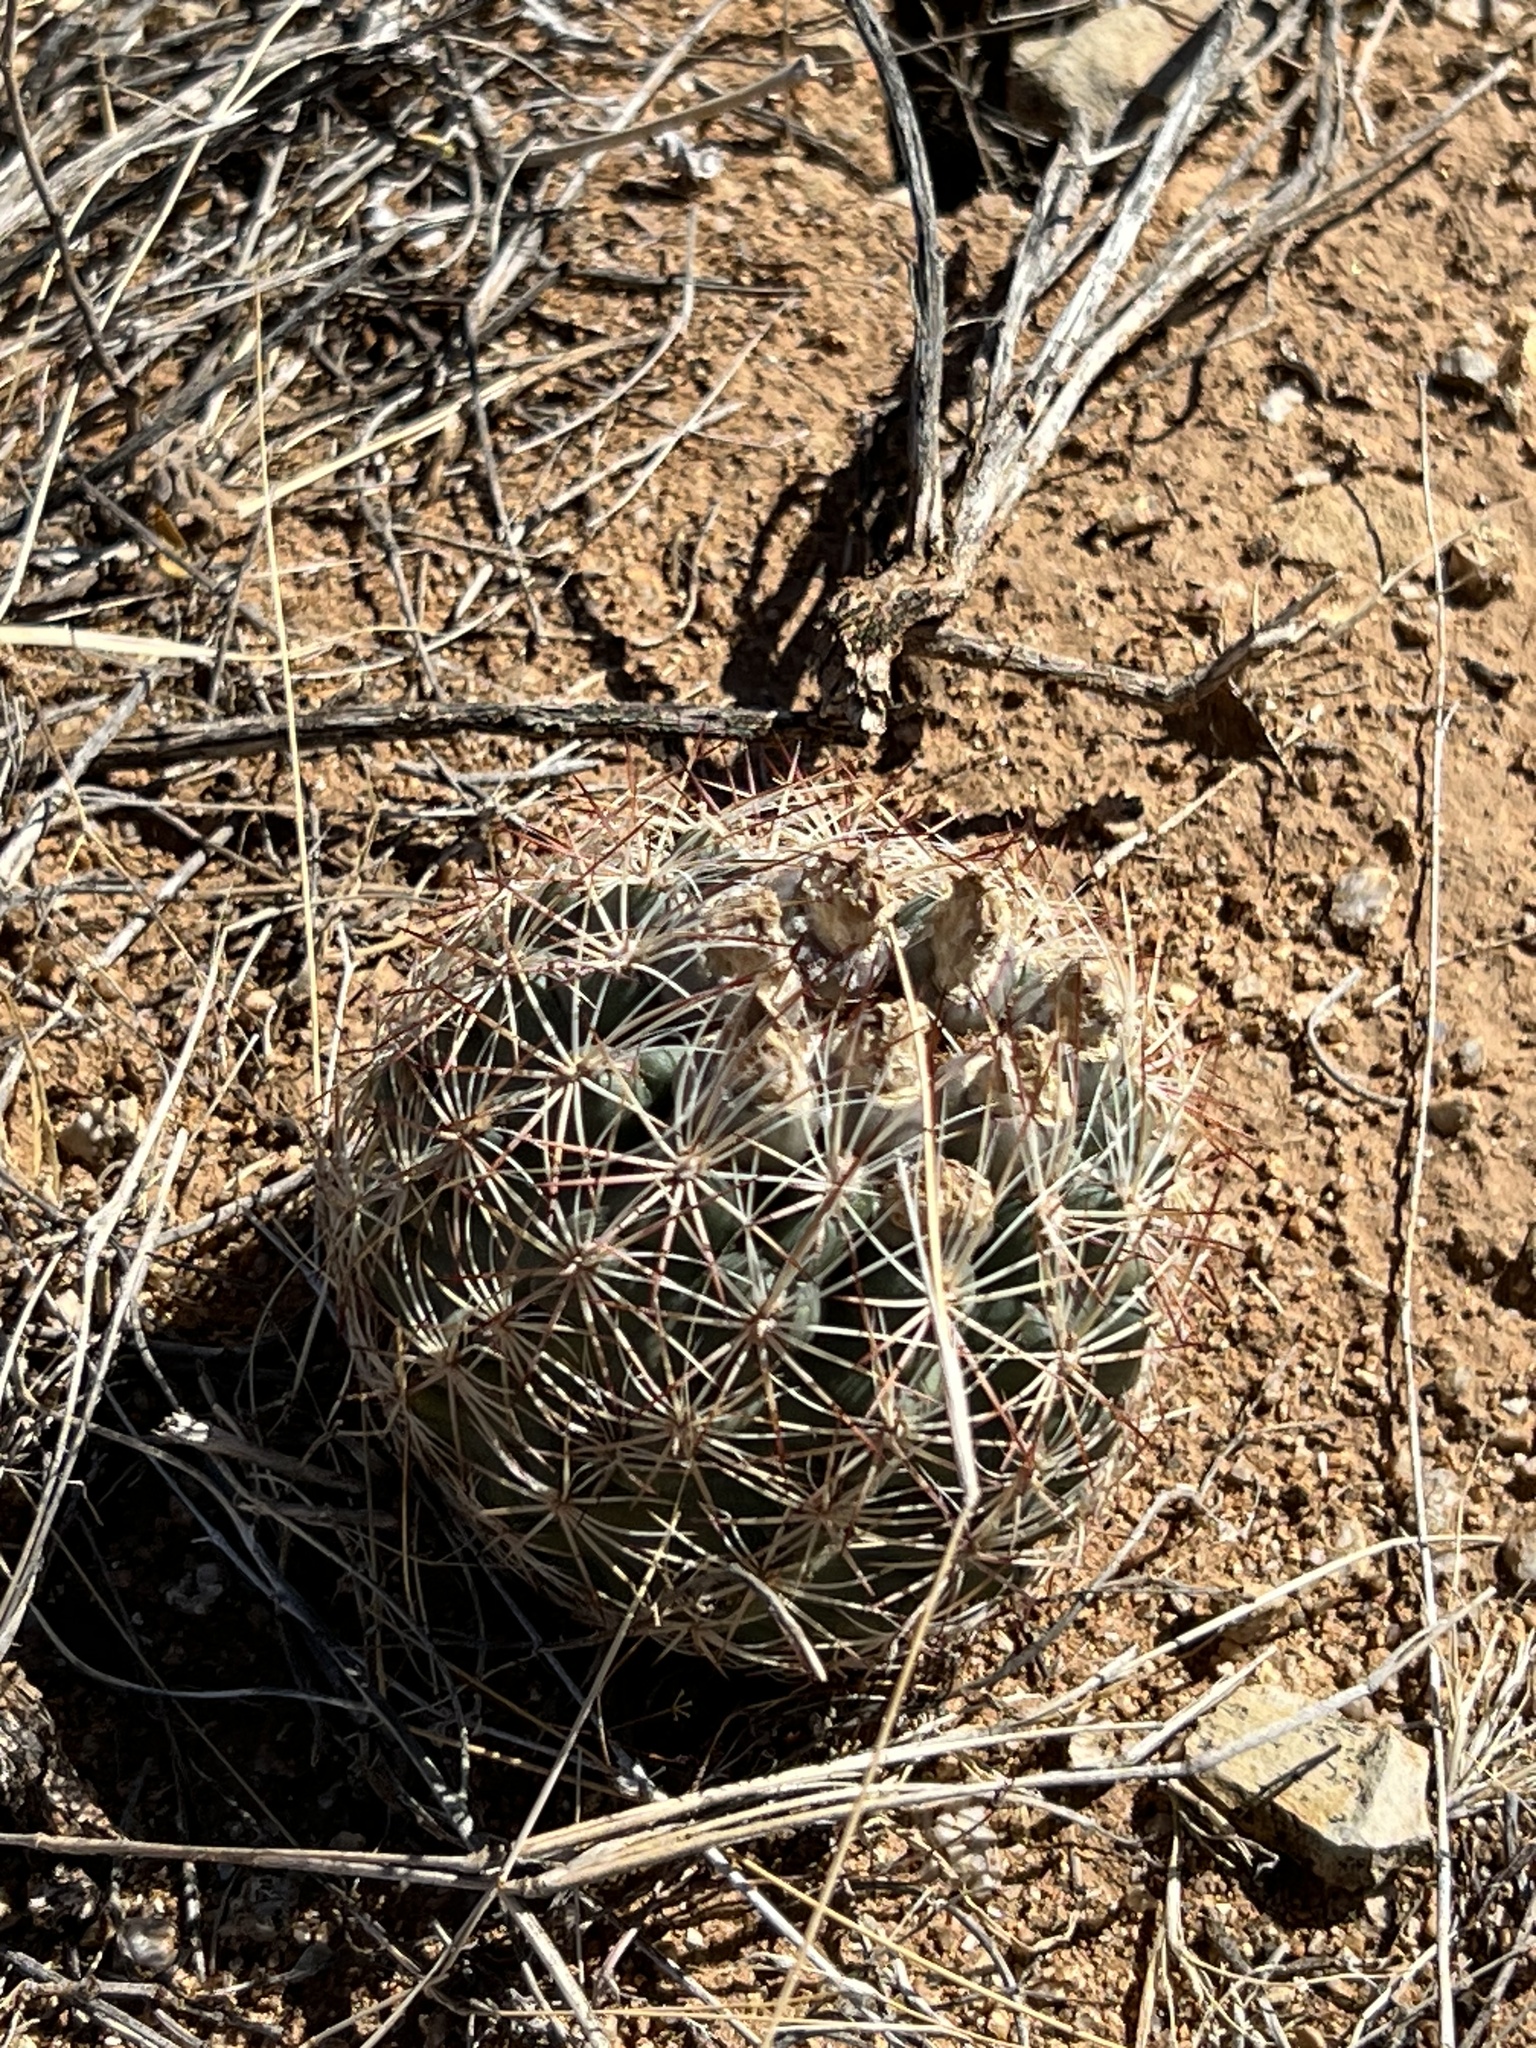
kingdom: Plantae
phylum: Tracheophyta
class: Magnoliopsida
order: Caryophyllales
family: Cactaceae
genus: Sclerocactus
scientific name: Sclerocactus intertextus
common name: White fish-hook cactus
